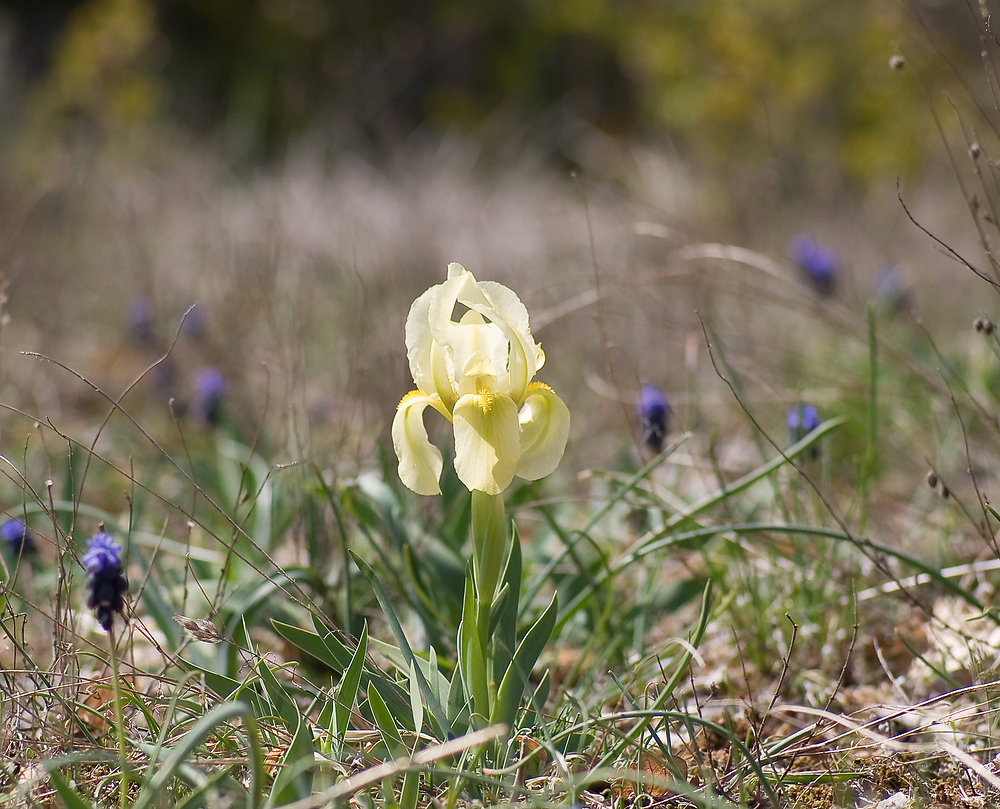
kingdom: Plantae
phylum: Tracheophyta
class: Liliopsida
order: Asparagales
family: Iridaceae
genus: Iris
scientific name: Iris lutescens
